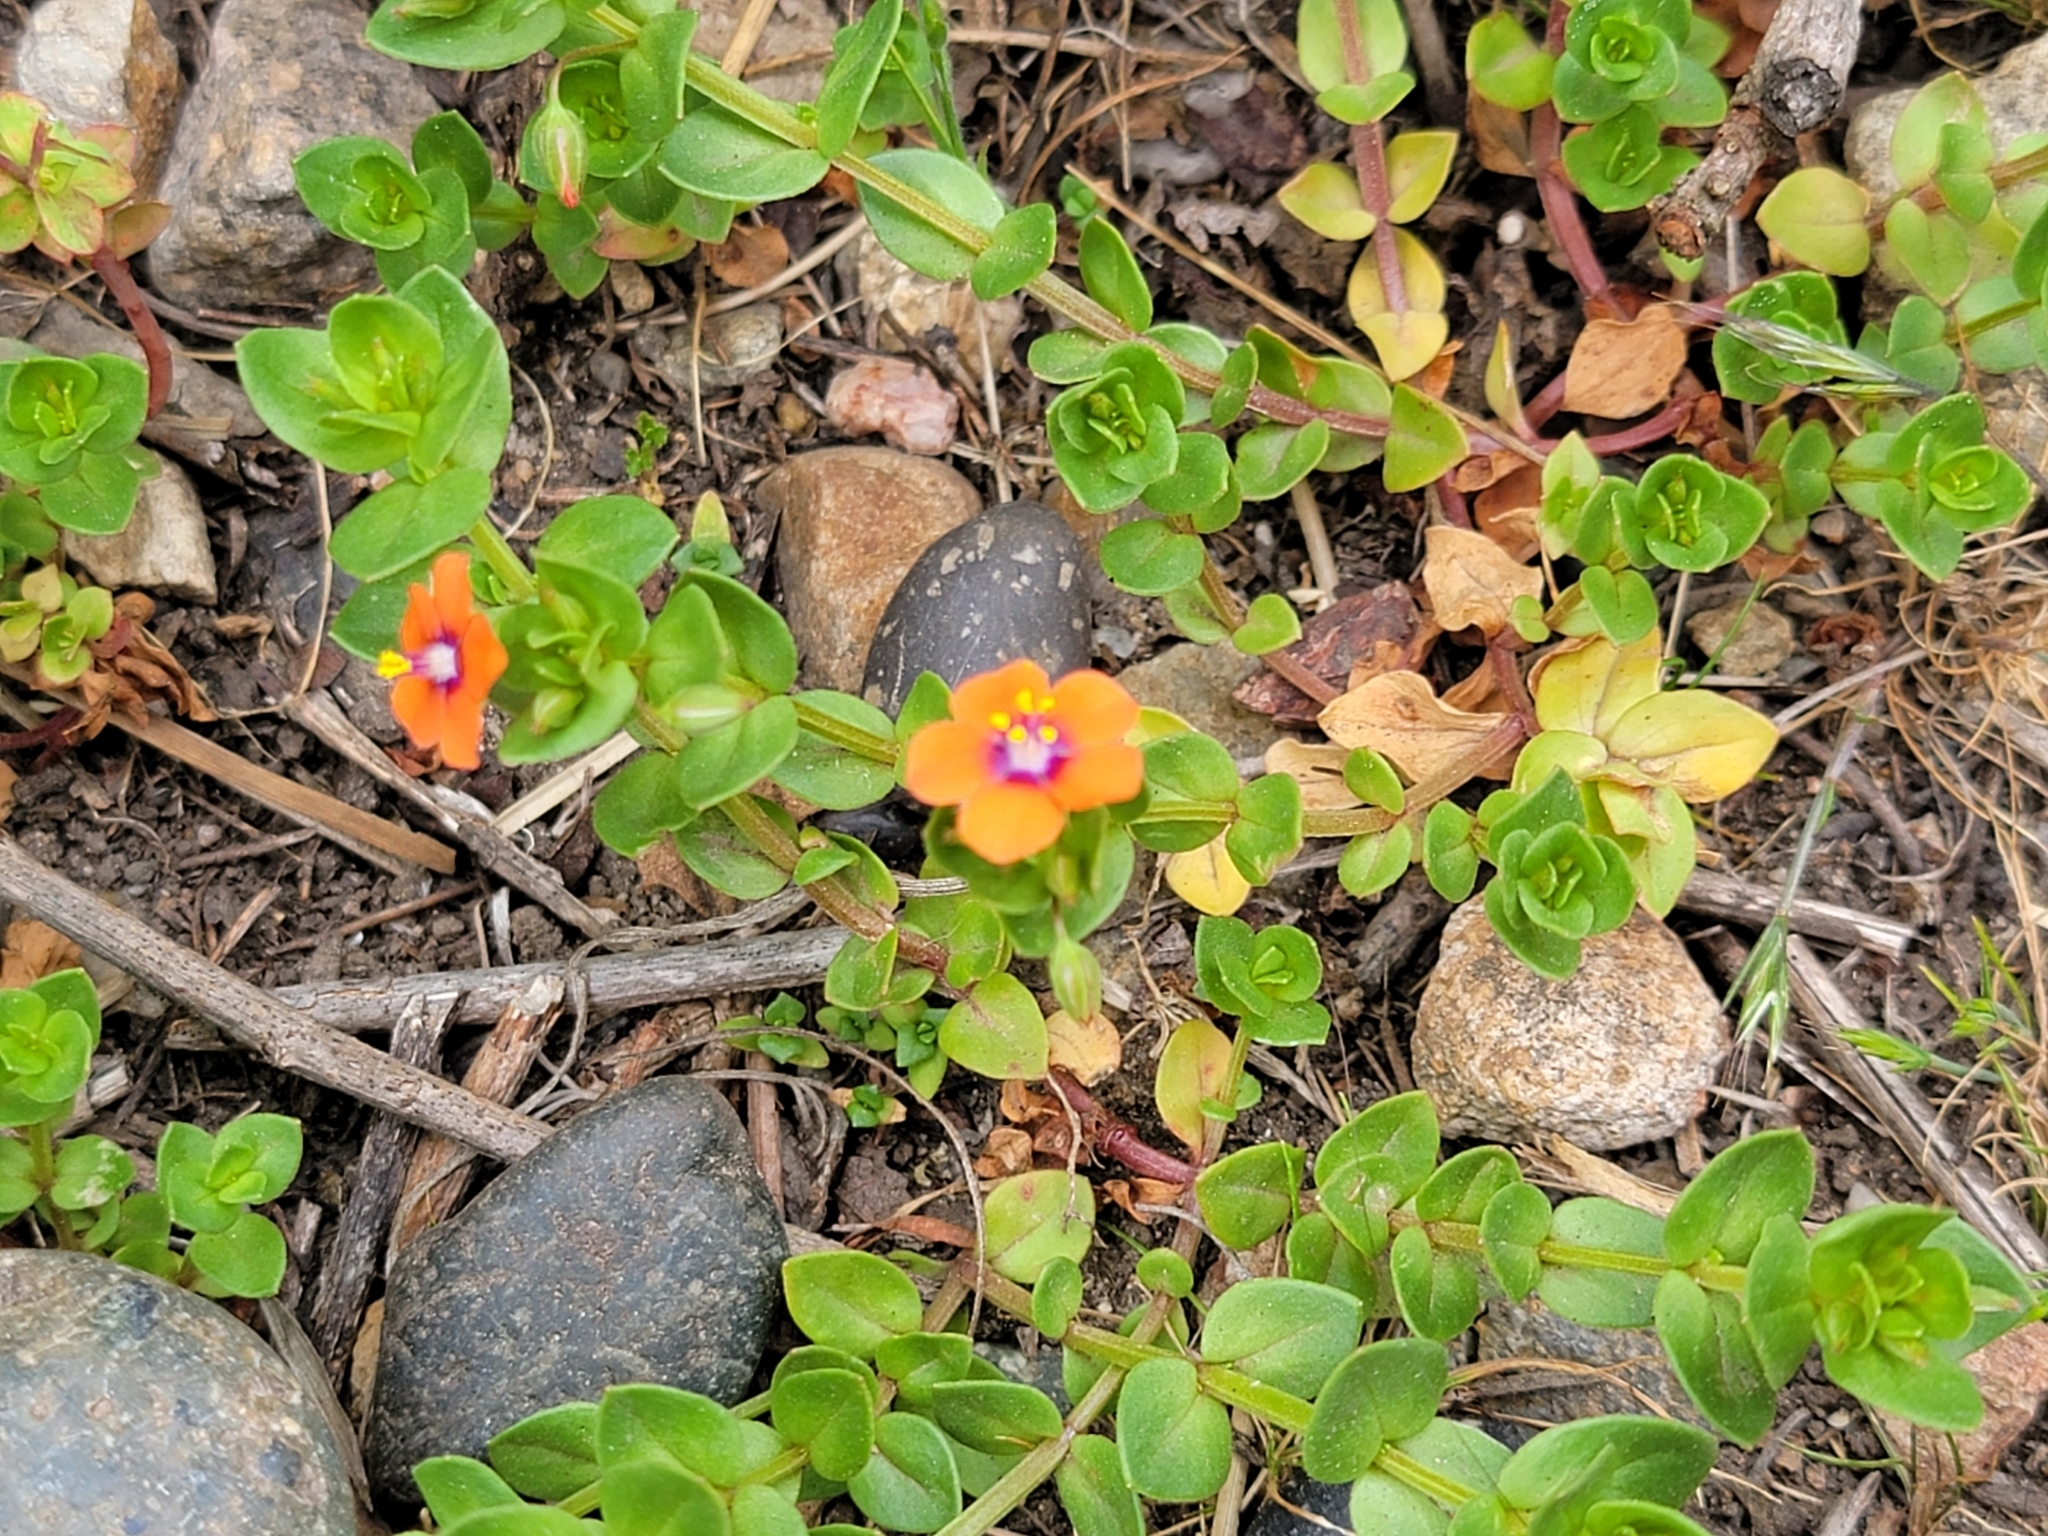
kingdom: Plantae
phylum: Tracheophyta
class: Magnoliopsida
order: Ericales
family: Primulaceae
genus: Lysimachia
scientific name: Lysimachia arvensis
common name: Scarlet pimpernel
